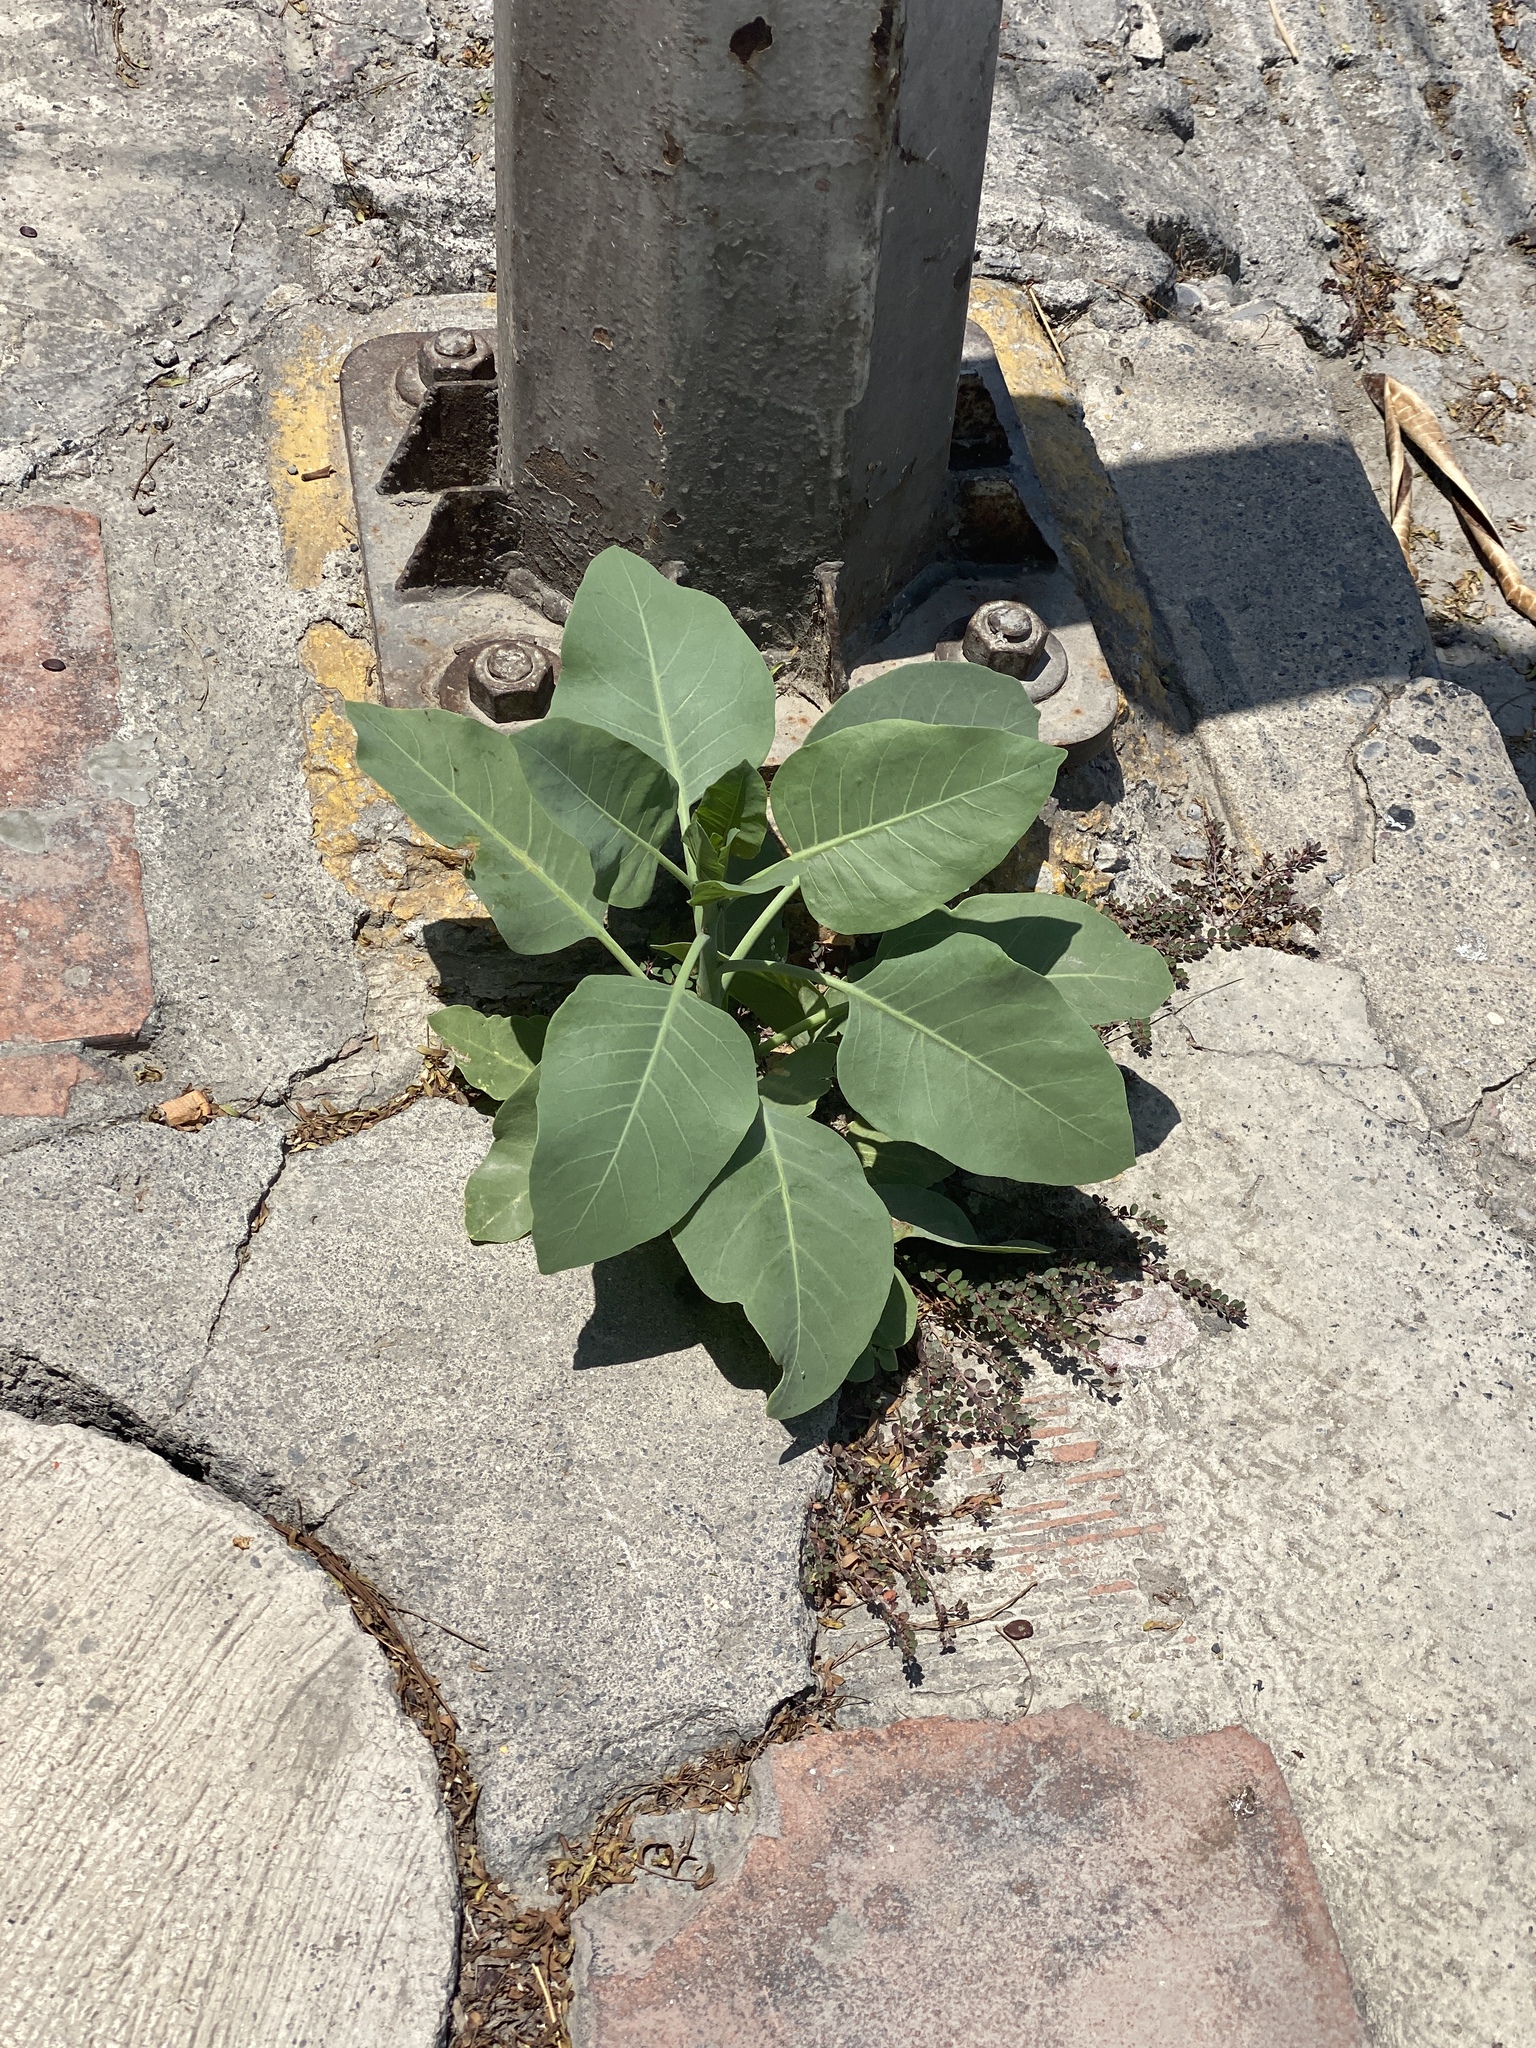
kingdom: Plantae
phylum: Tracheophyta
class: Magnoliopsida
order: Solanales
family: Solanaceae
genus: Nicotiana
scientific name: Nicotiana glauca
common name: Tree tobacco
